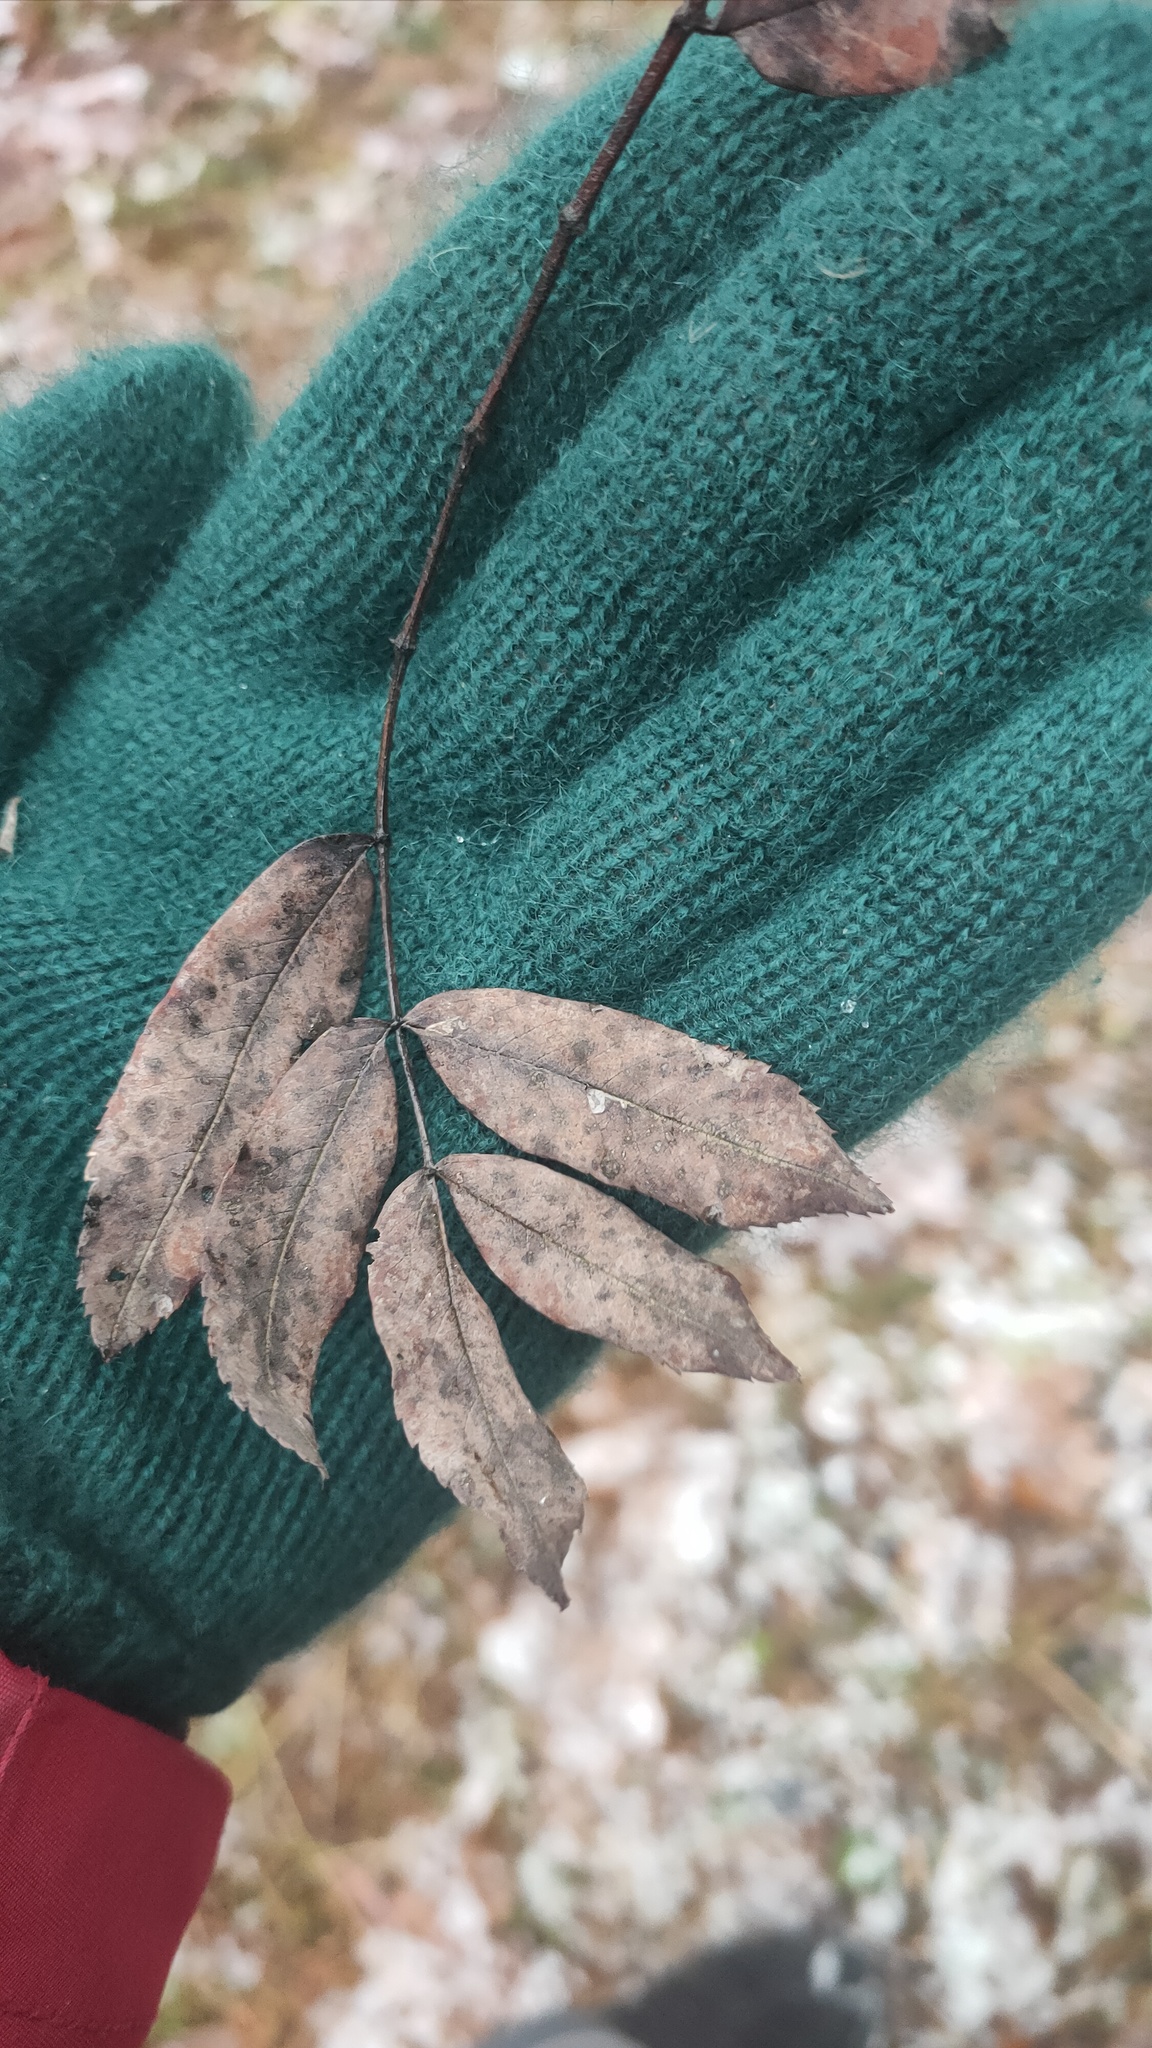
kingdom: Plantae
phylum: Tracheophyta
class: Magnoliopsida
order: Rosales
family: Rosaceae
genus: Sorbus
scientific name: Sorbus aucuparia
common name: Rowan
